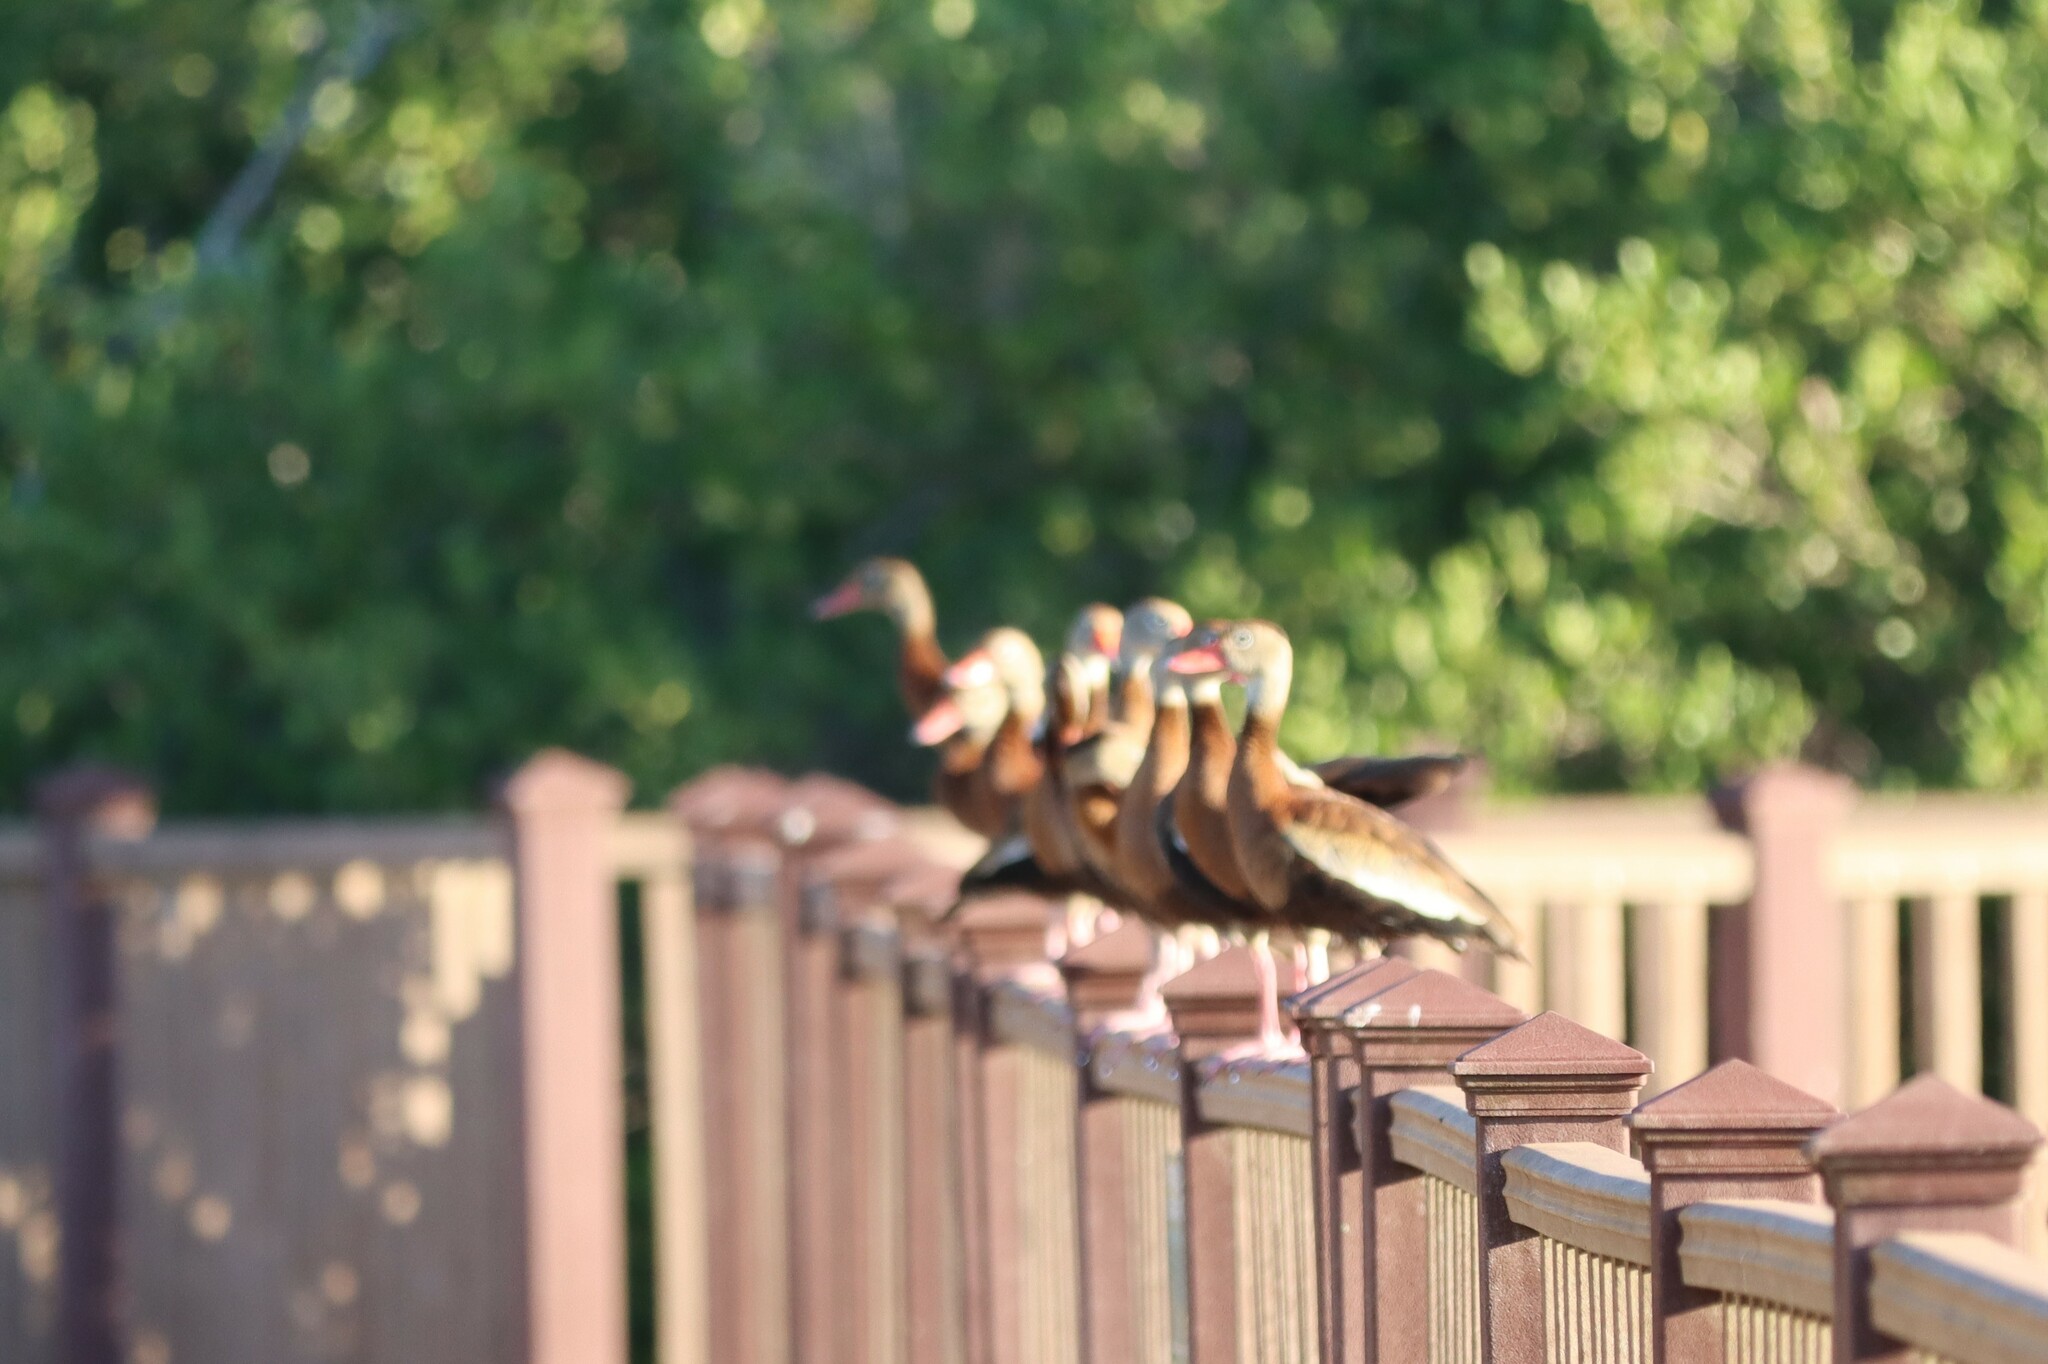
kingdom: Animalia
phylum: Chordata
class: Aves
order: Anseriformes
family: Anatidae
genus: Dendrocygna
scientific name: Dendrocygna autumnalis
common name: Black-bellied whistling duck
